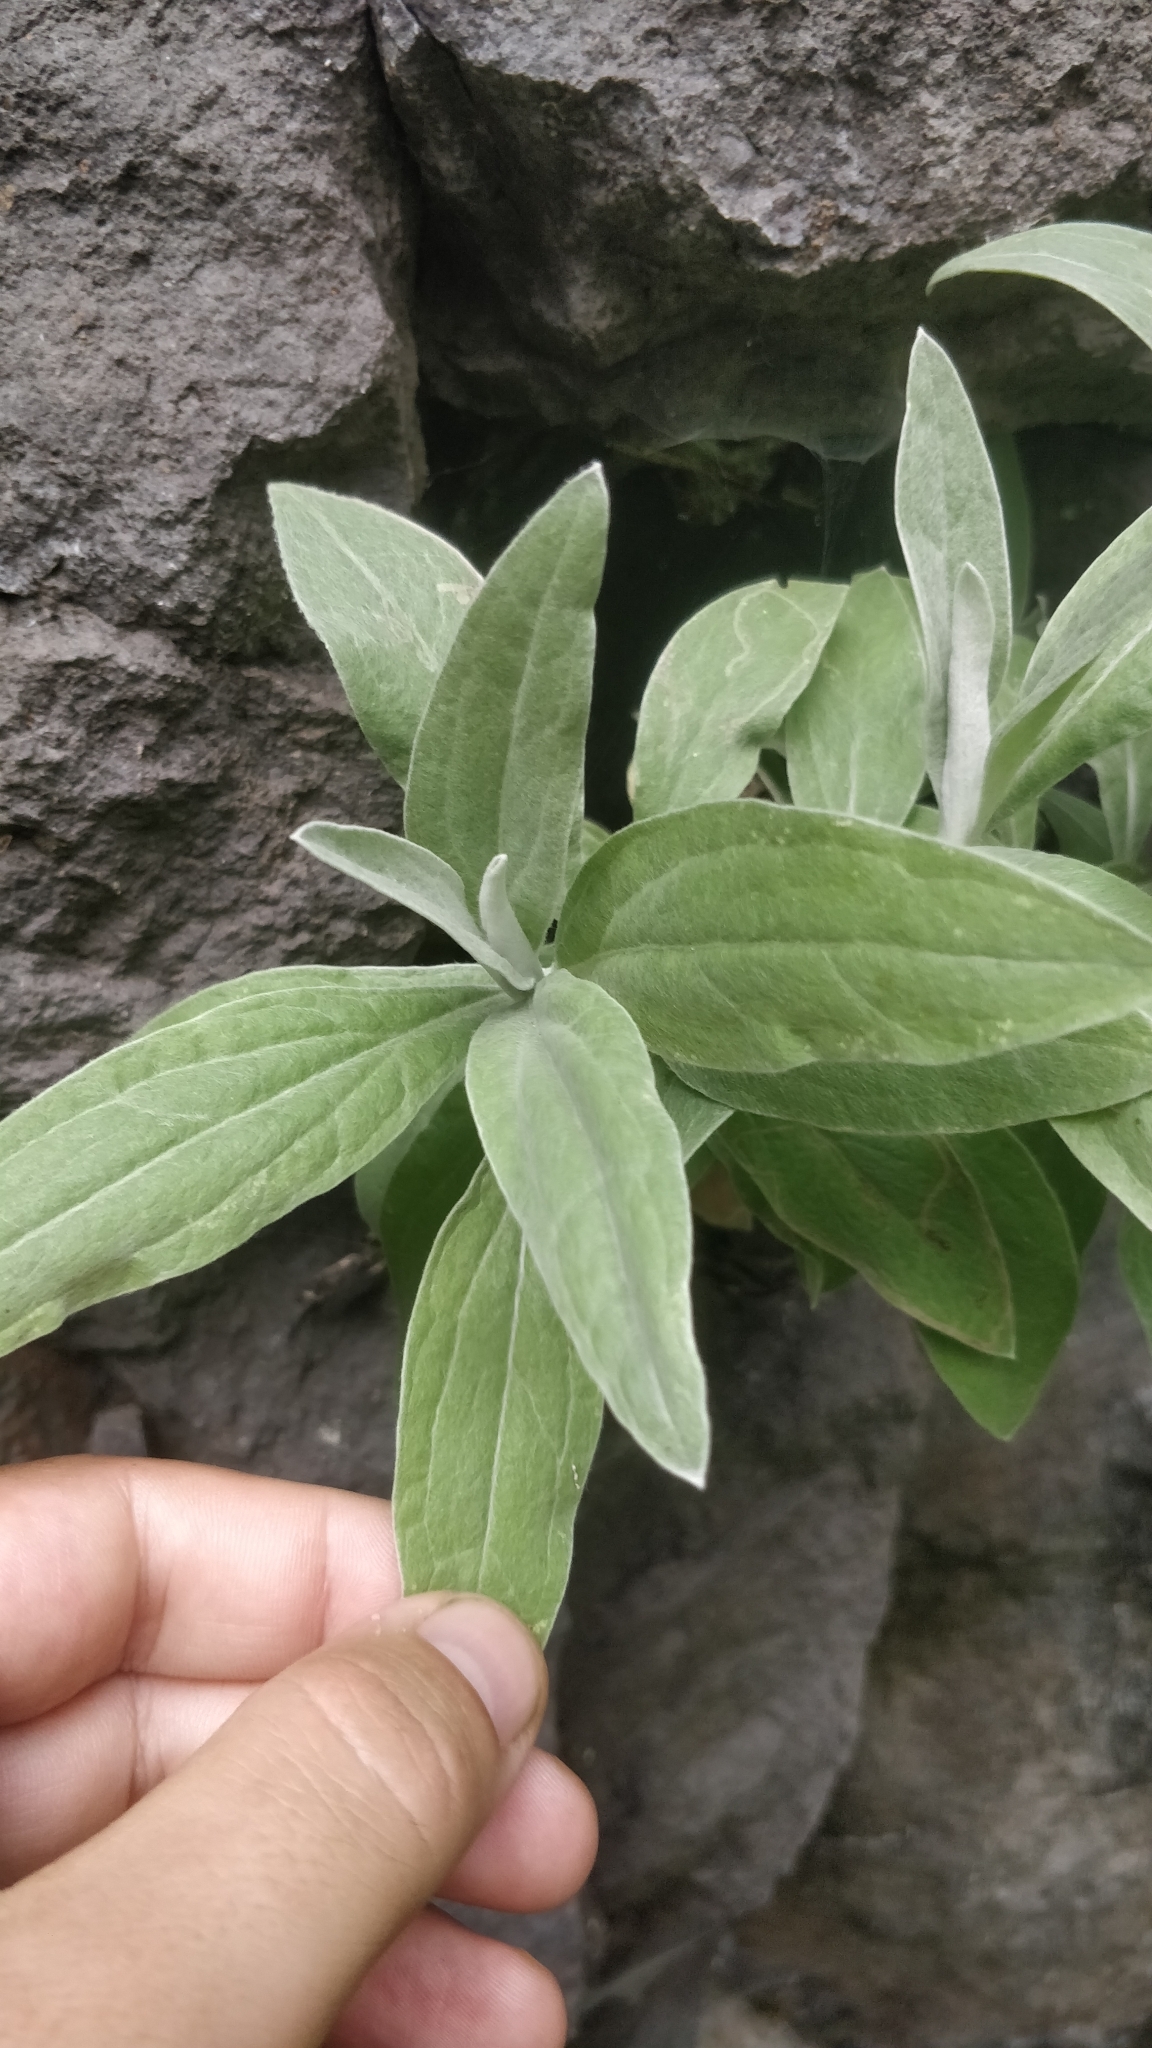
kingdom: Plantae
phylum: Tracheophyta
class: Magnoliopsida
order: Asterales
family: Asteraceae
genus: Helichrysum
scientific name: Helichrysum melaleucum
